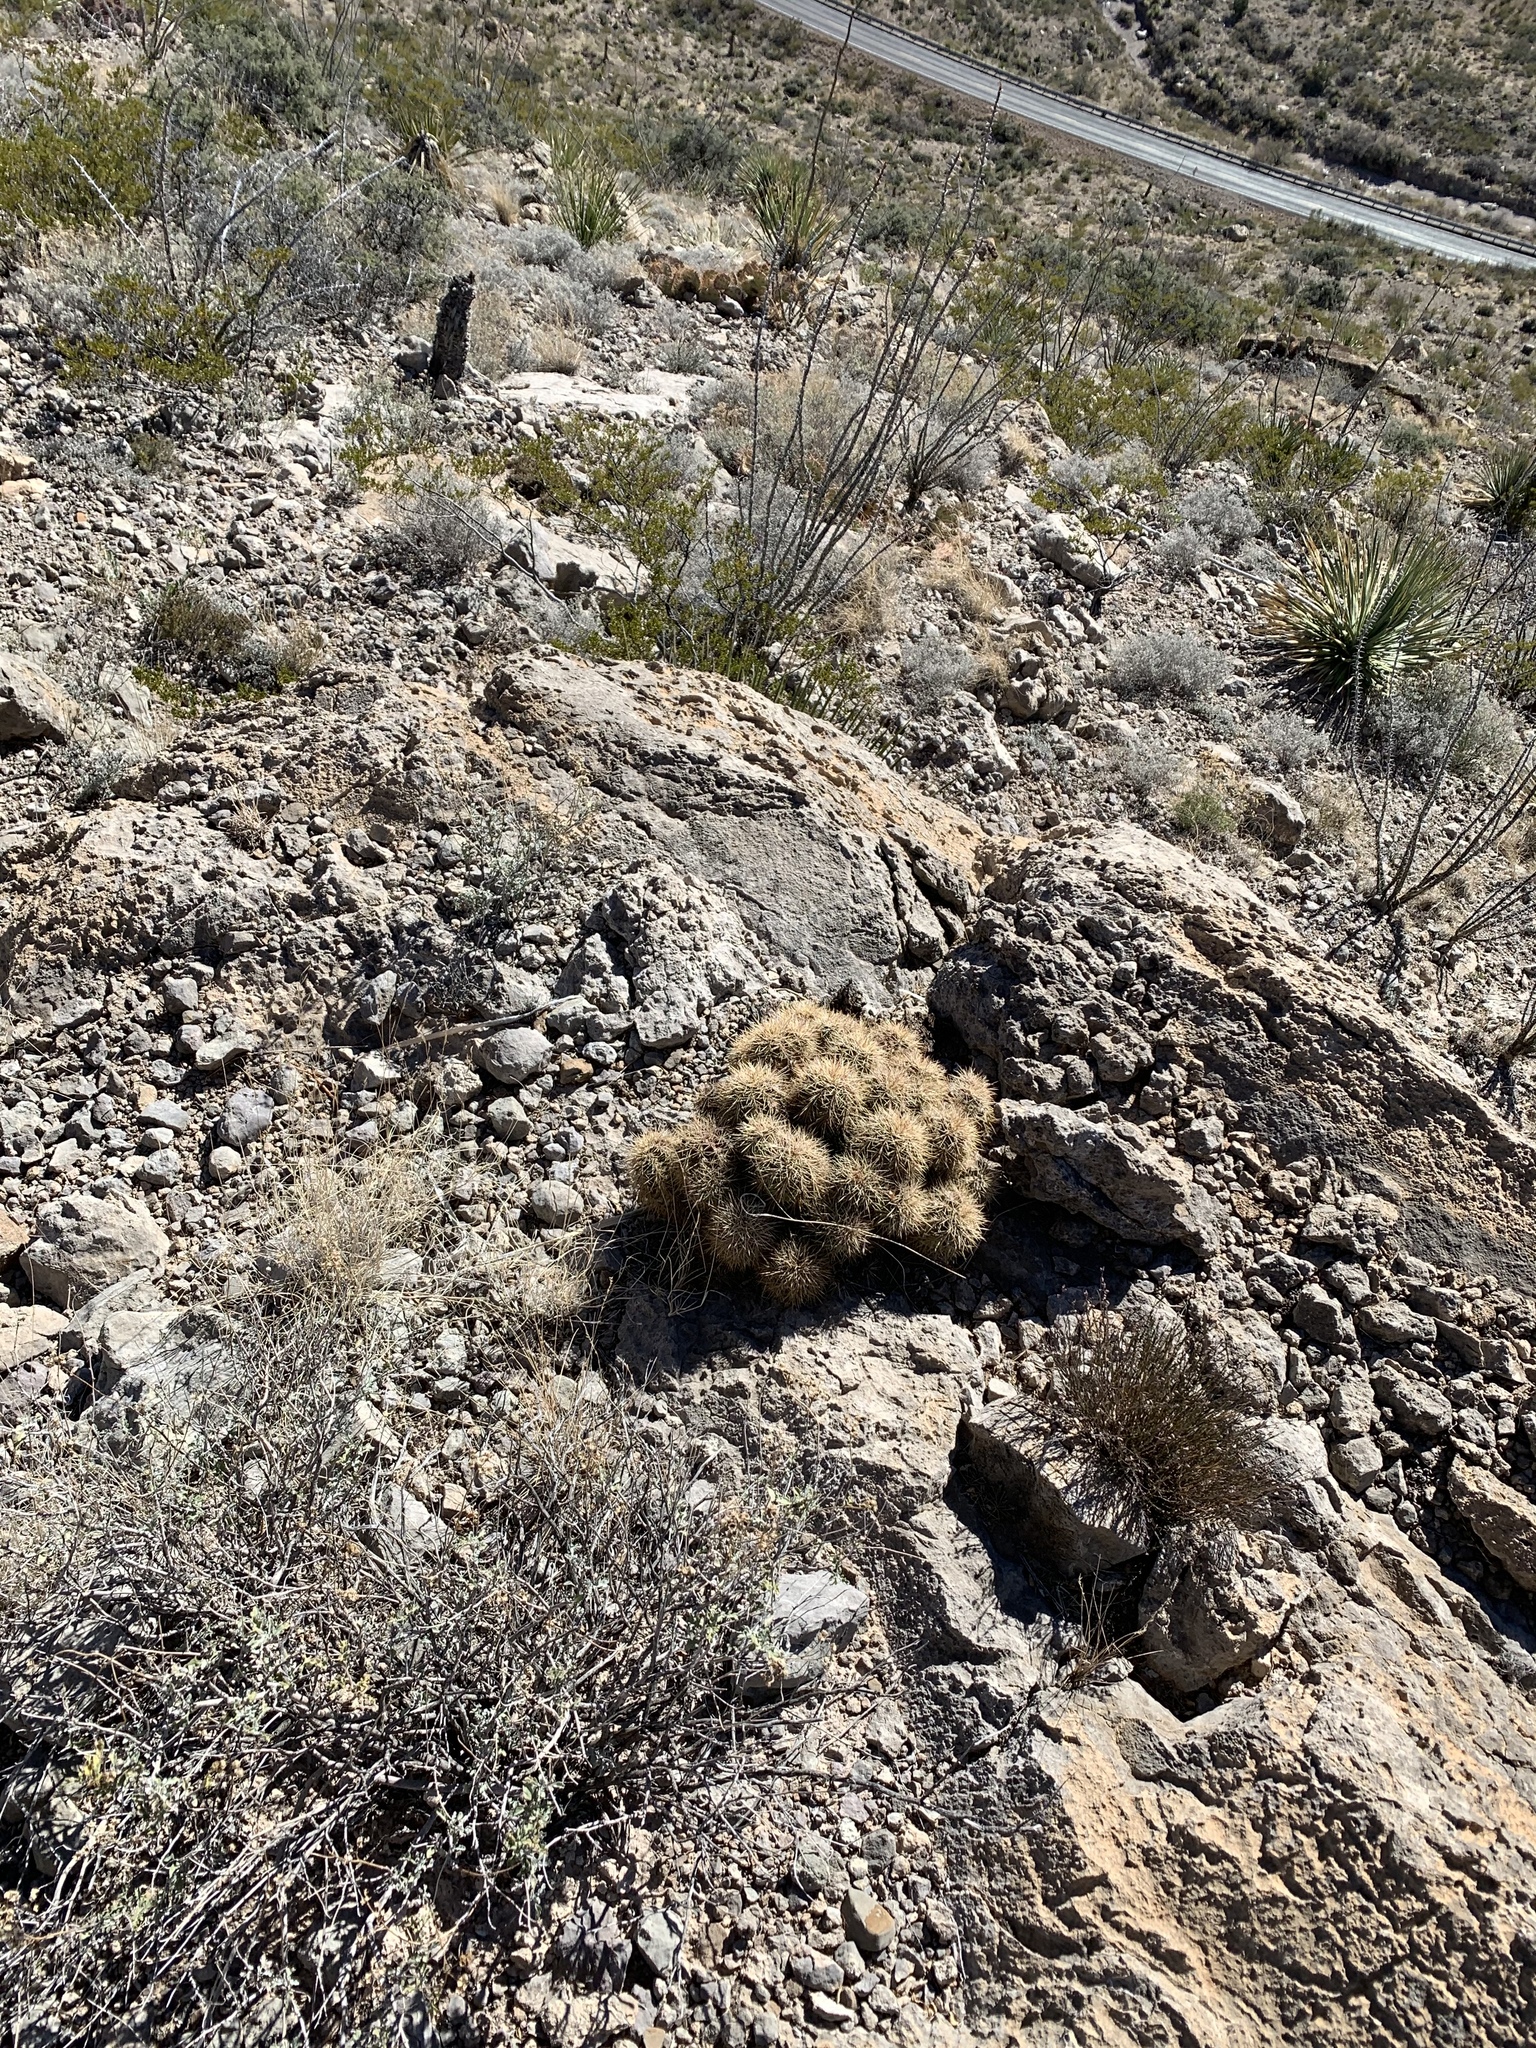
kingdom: Plantae
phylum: Tracheophyta
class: Magnoliopsida
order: Caryophyllales
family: Cactaceae
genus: Echinocereus
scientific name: Echinocereus coccineus
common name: Scarlet hedgehog cactus
